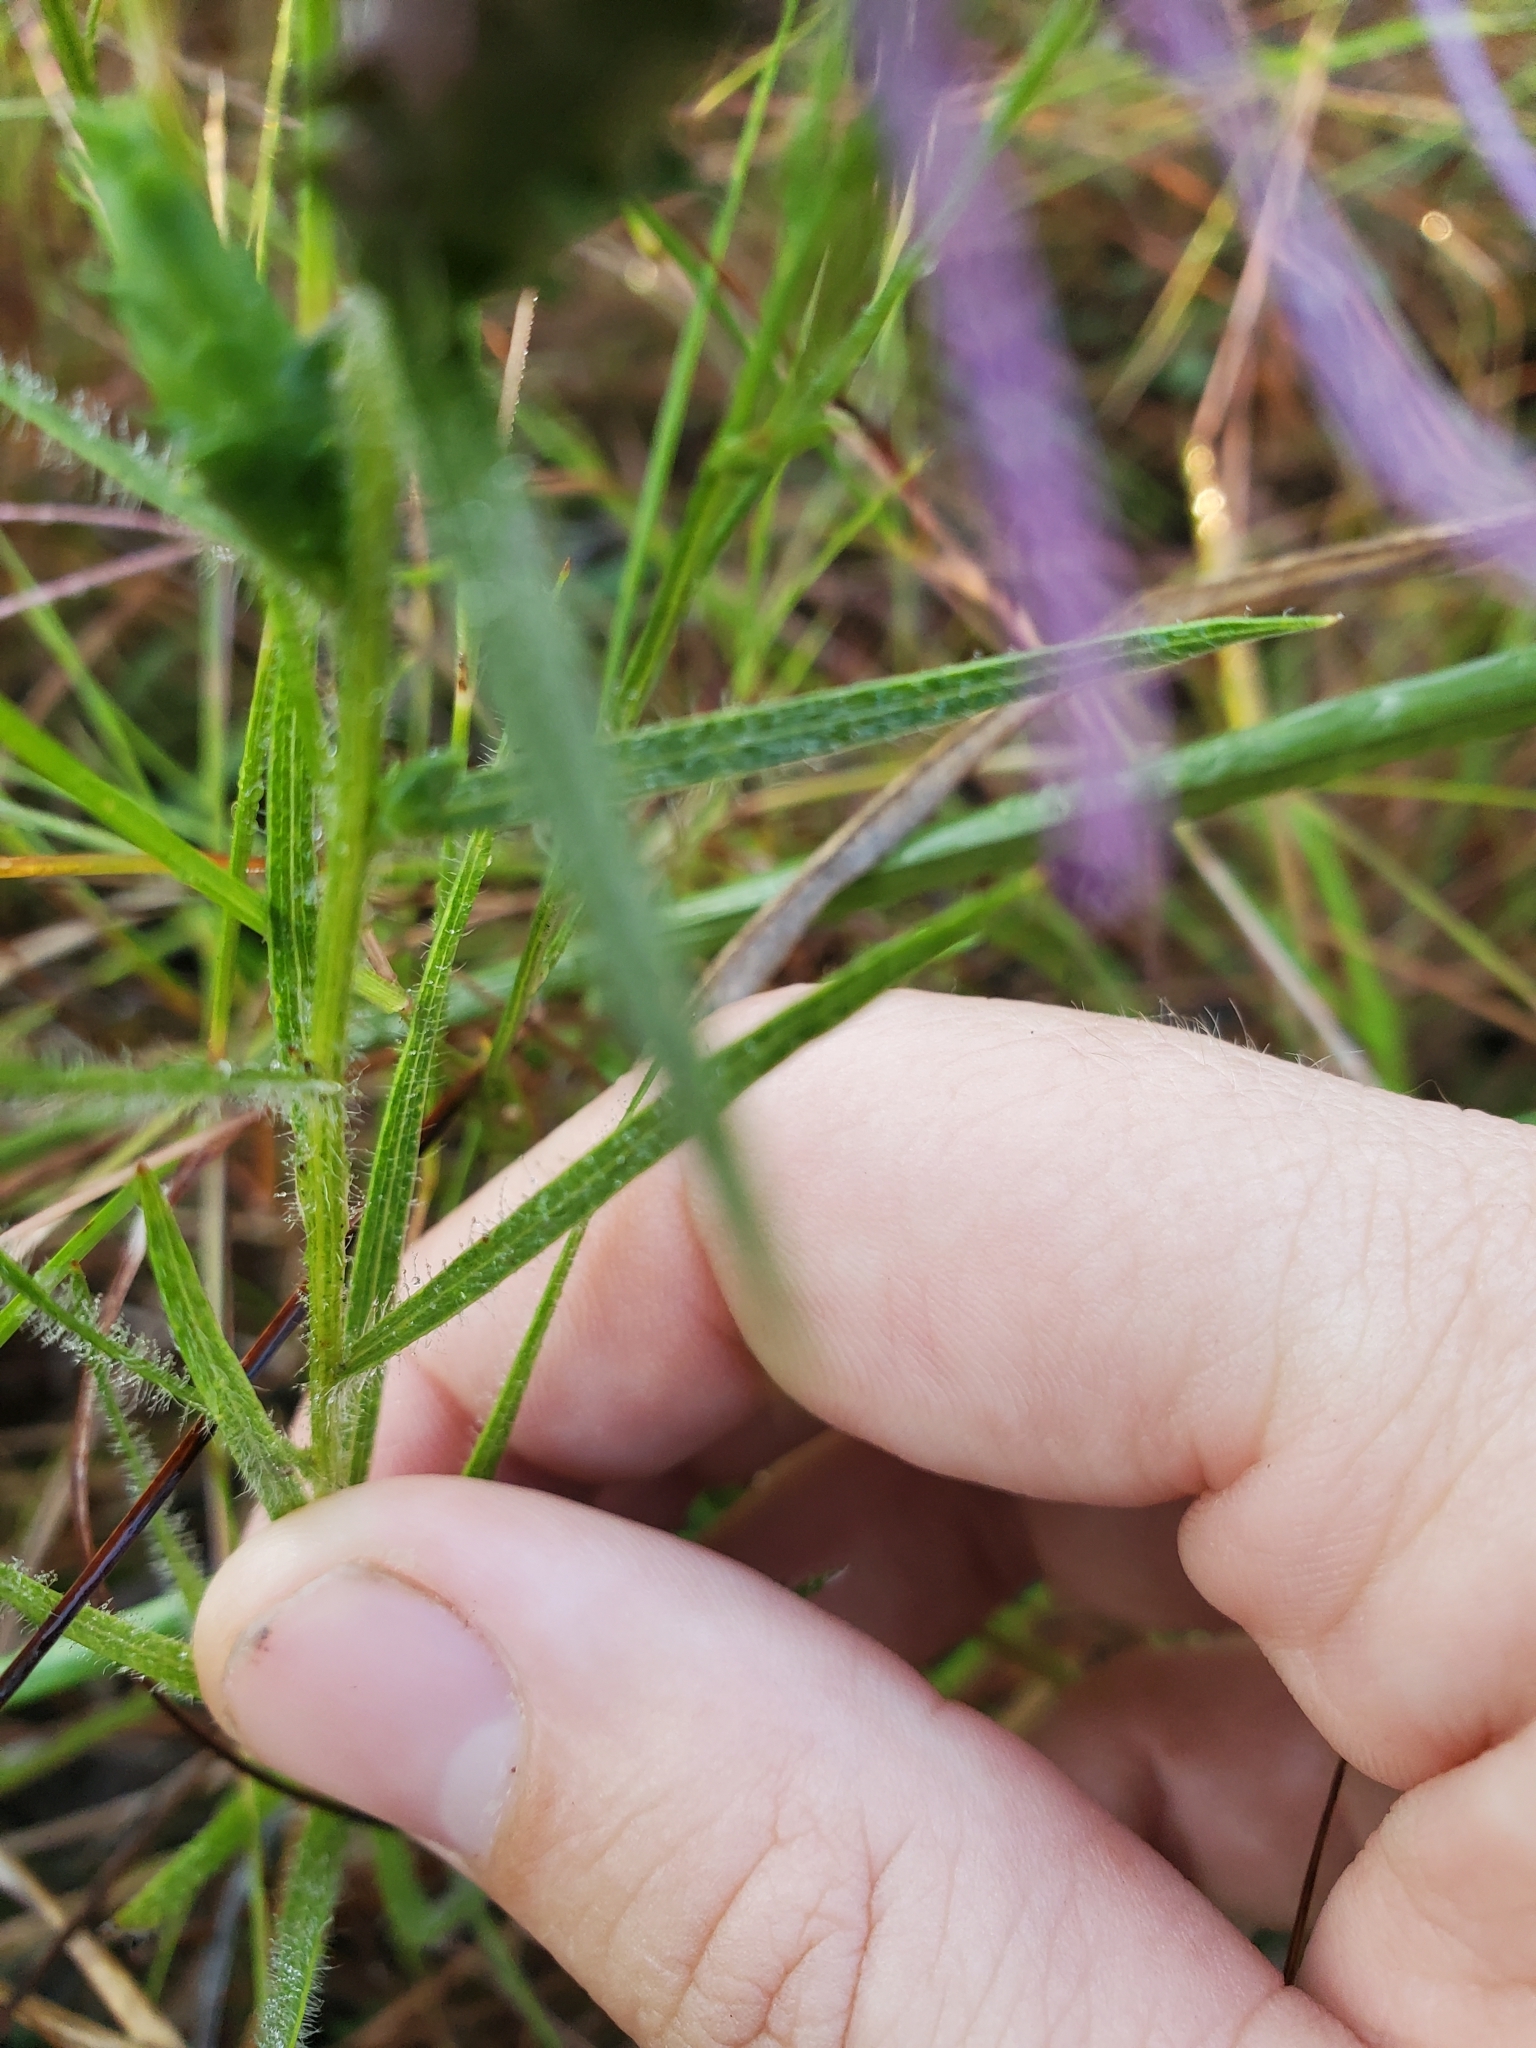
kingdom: Plantae
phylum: Tracheophyta
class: Magnoliopsida
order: Asterales
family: Asteraceae
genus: Liatris
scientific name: Liatris squarrosa
